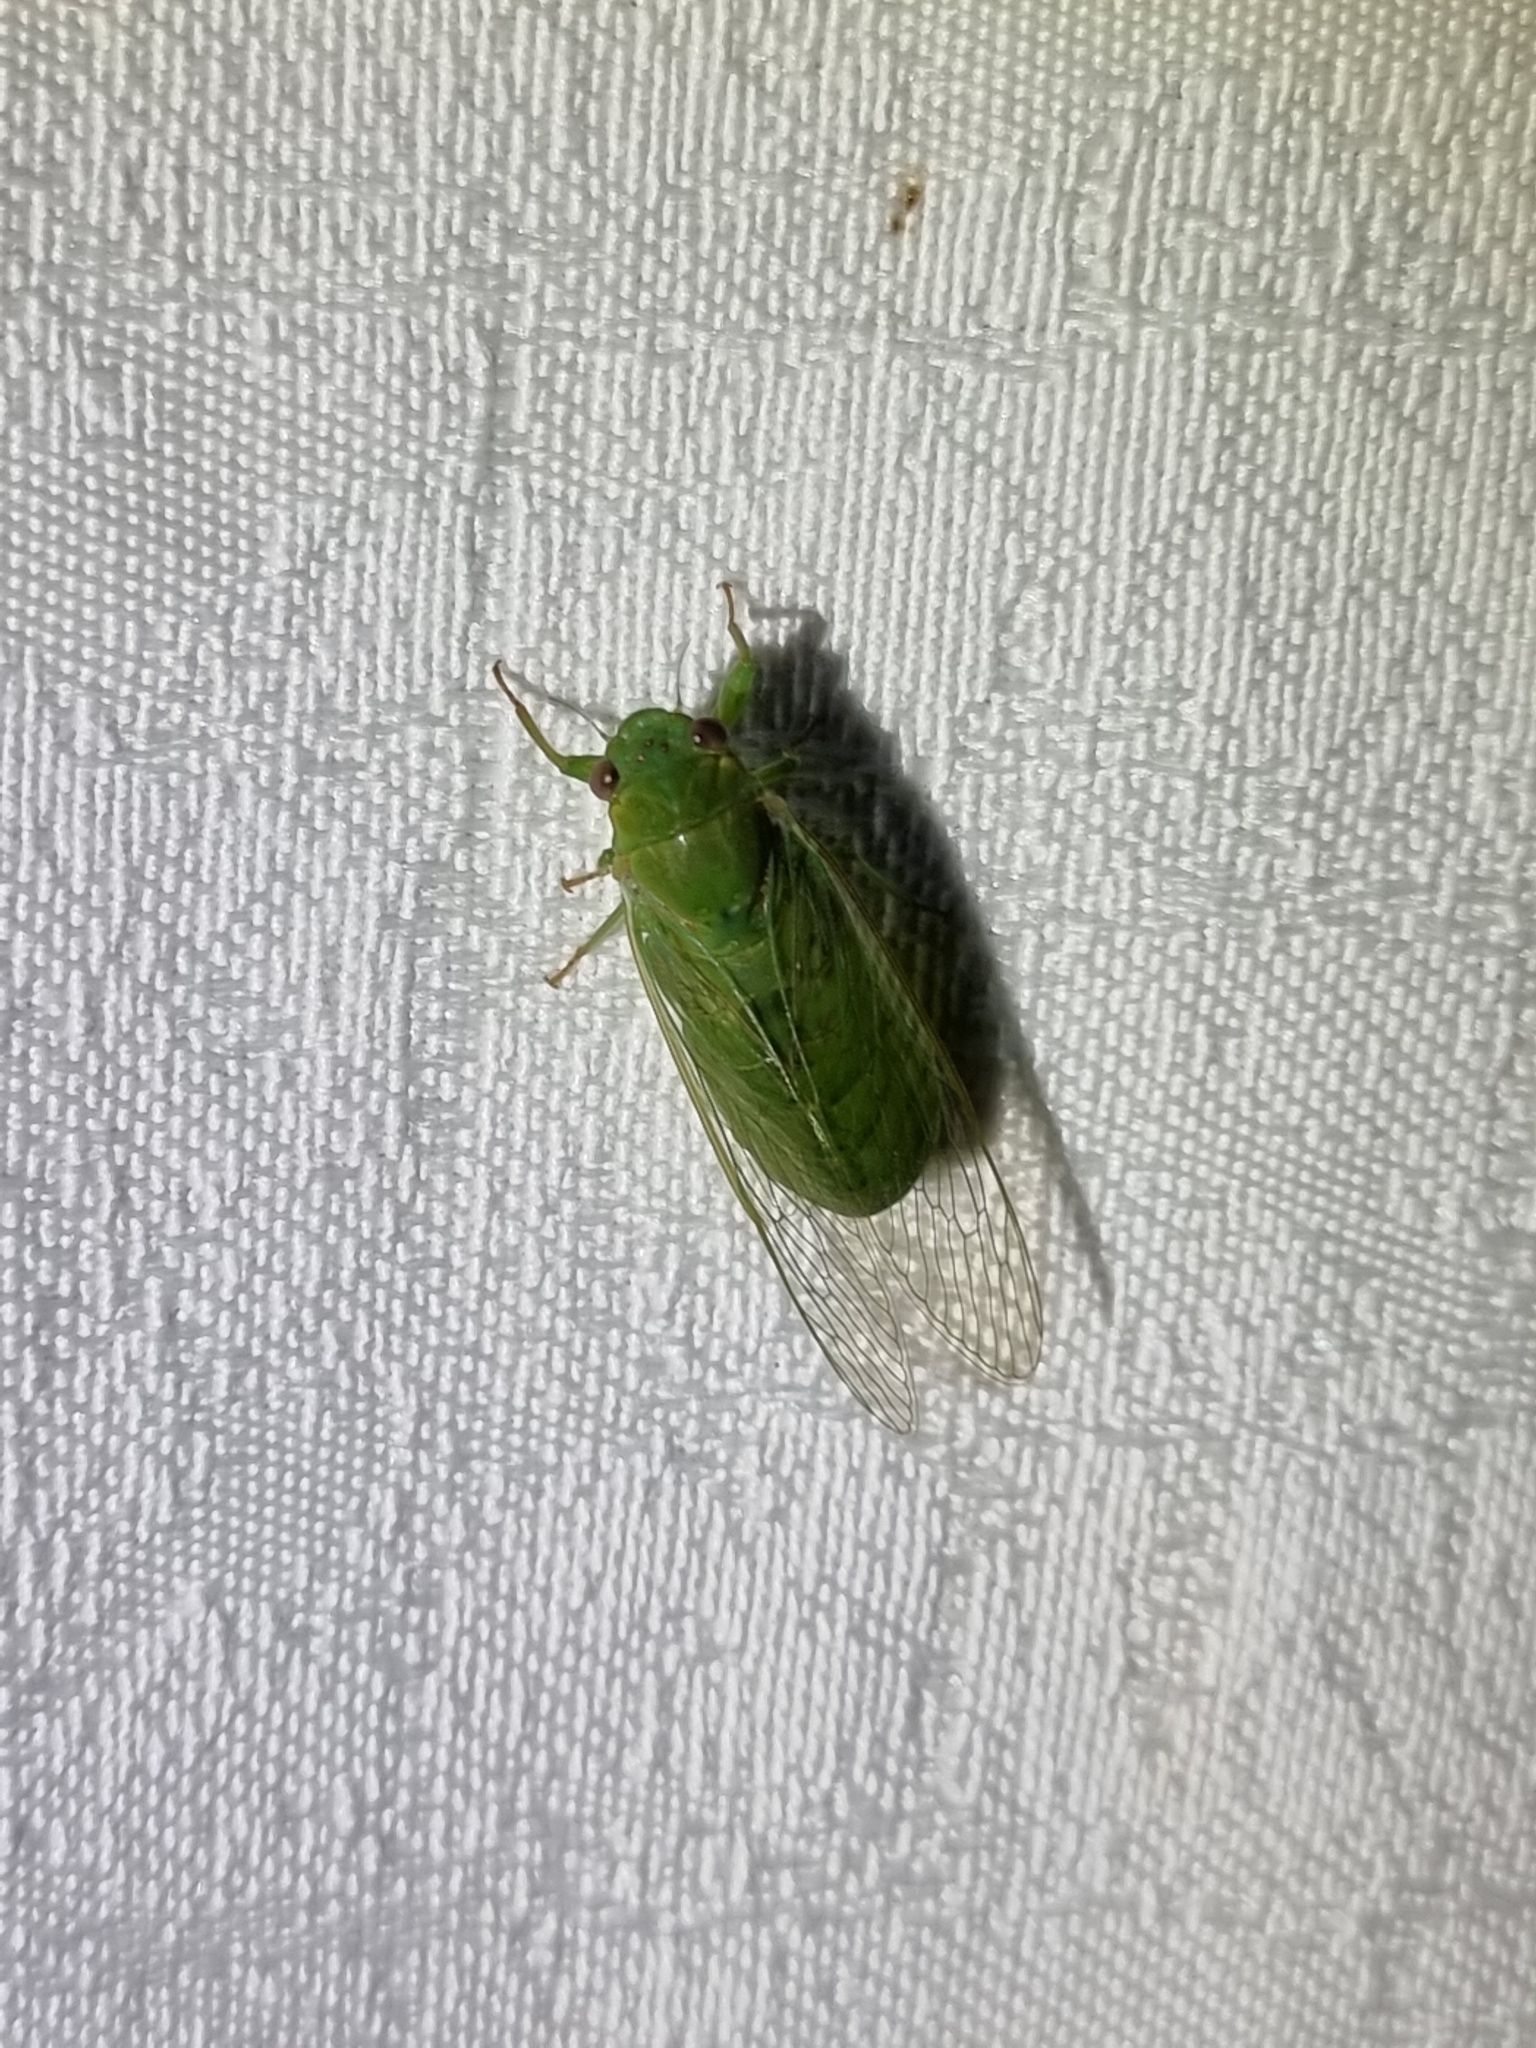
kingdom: Animalia
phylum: Arthropoda
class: Insecta
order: Hemiptera
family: Cicadidae
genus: Chlorocysta
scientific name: Chlorocysta vitripennis
